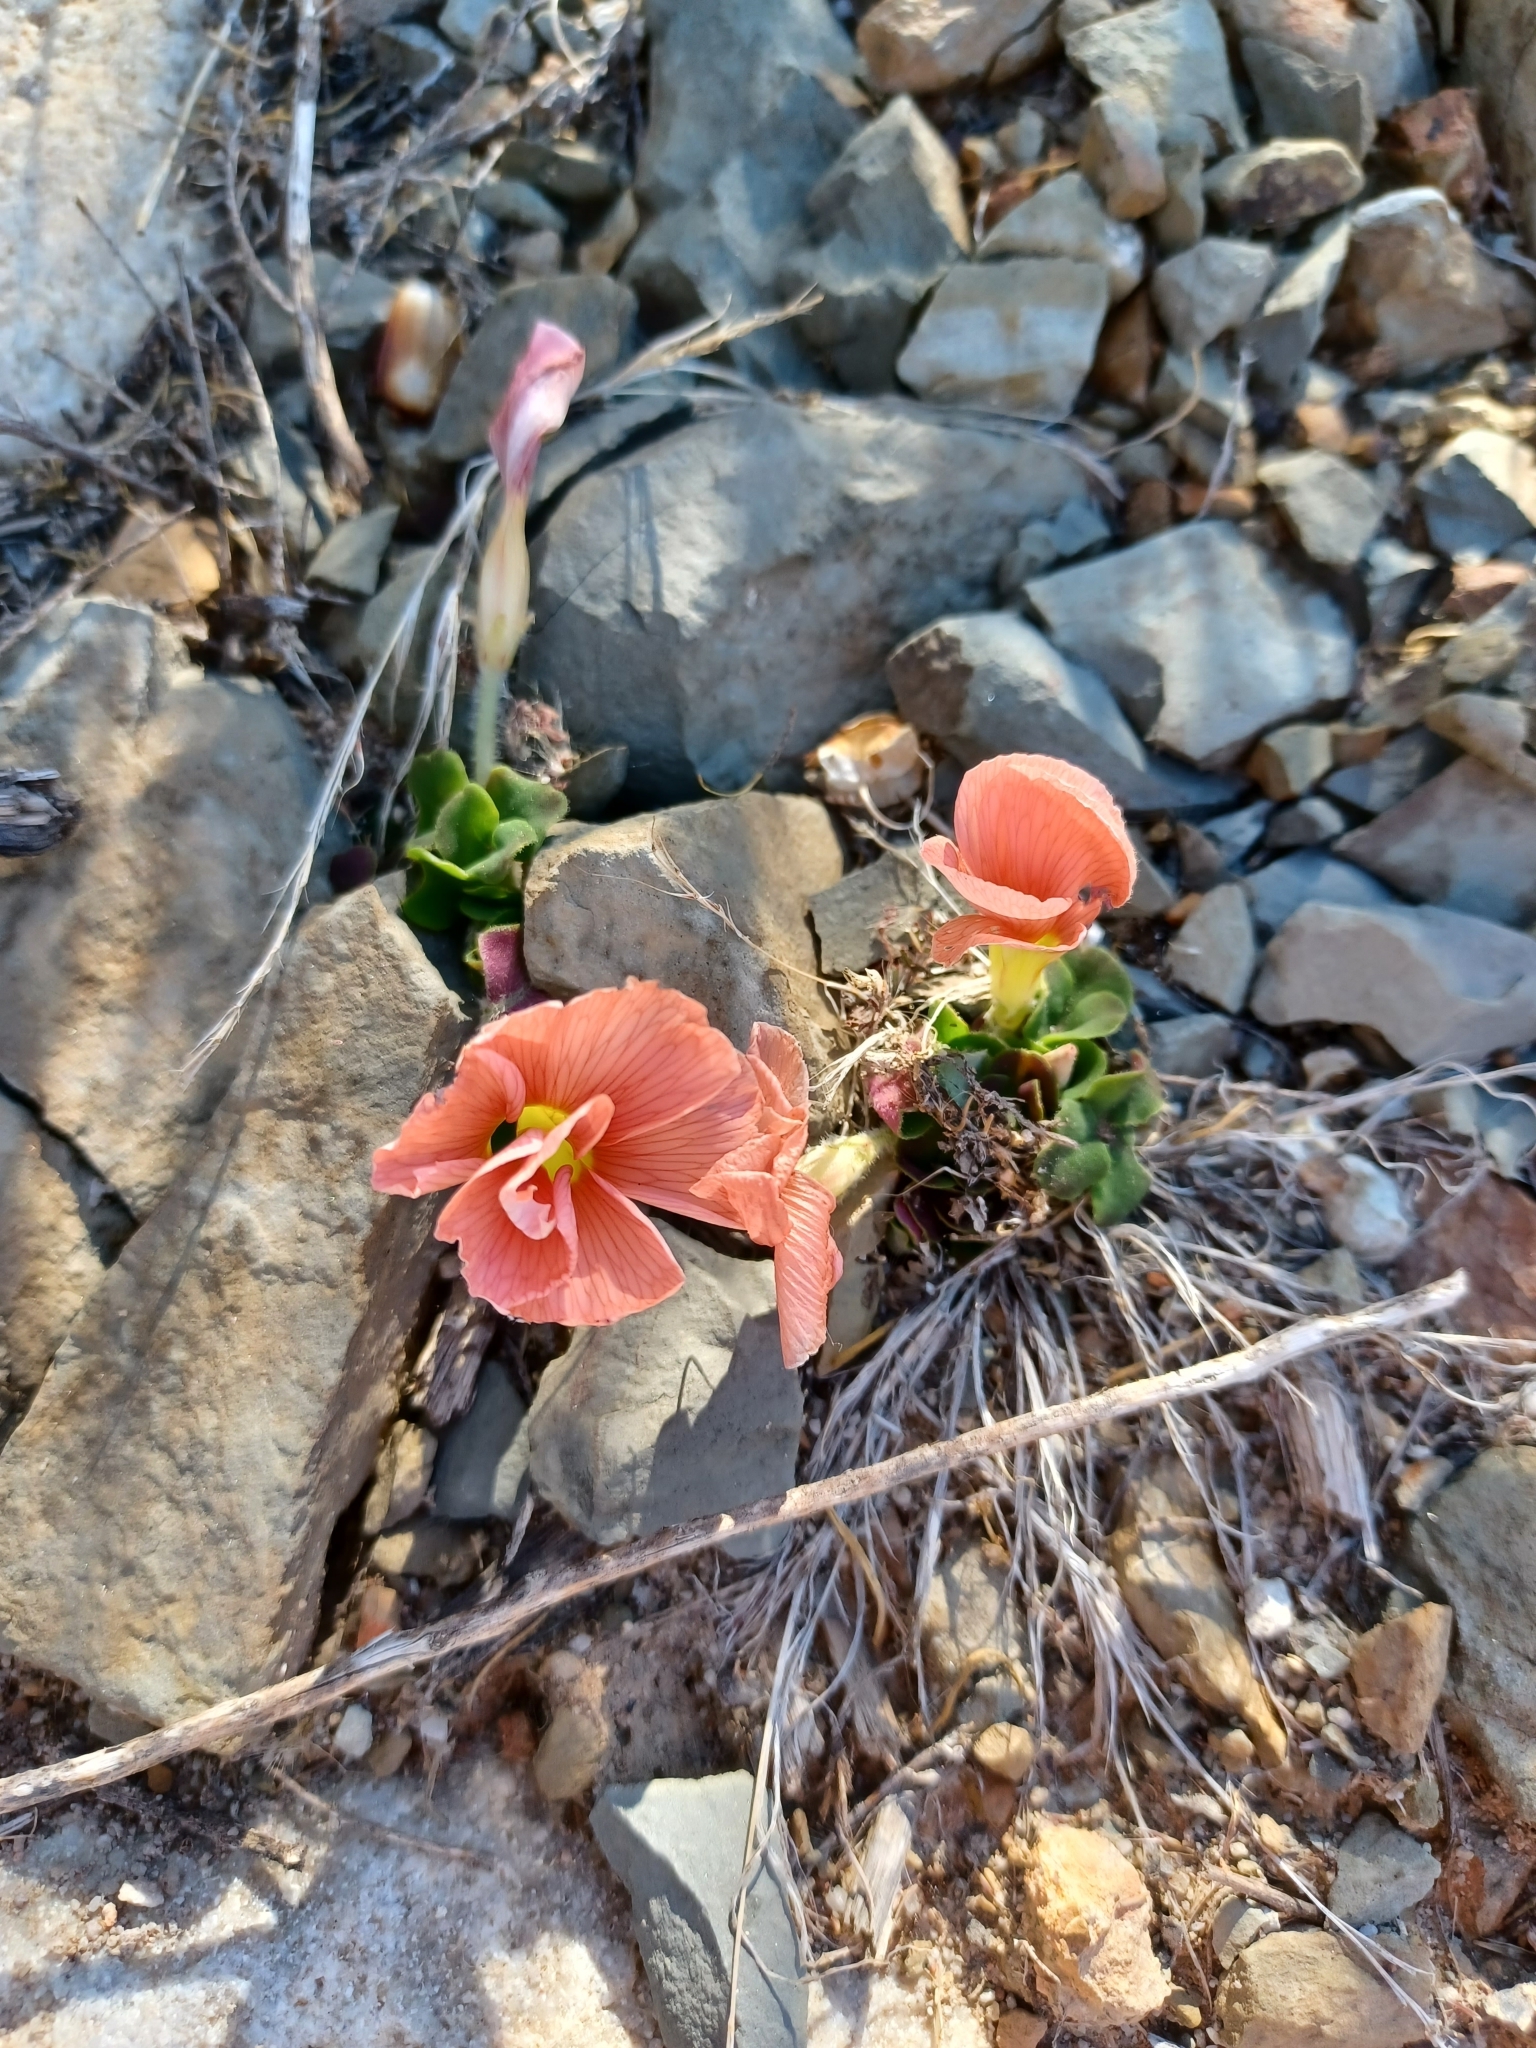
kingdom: Plantae
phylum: Tracheophyta
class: Magnoliopsida
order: Oxalidales
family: Oxalidaceae
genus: Oxalis
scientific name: Oxalis pulchella
